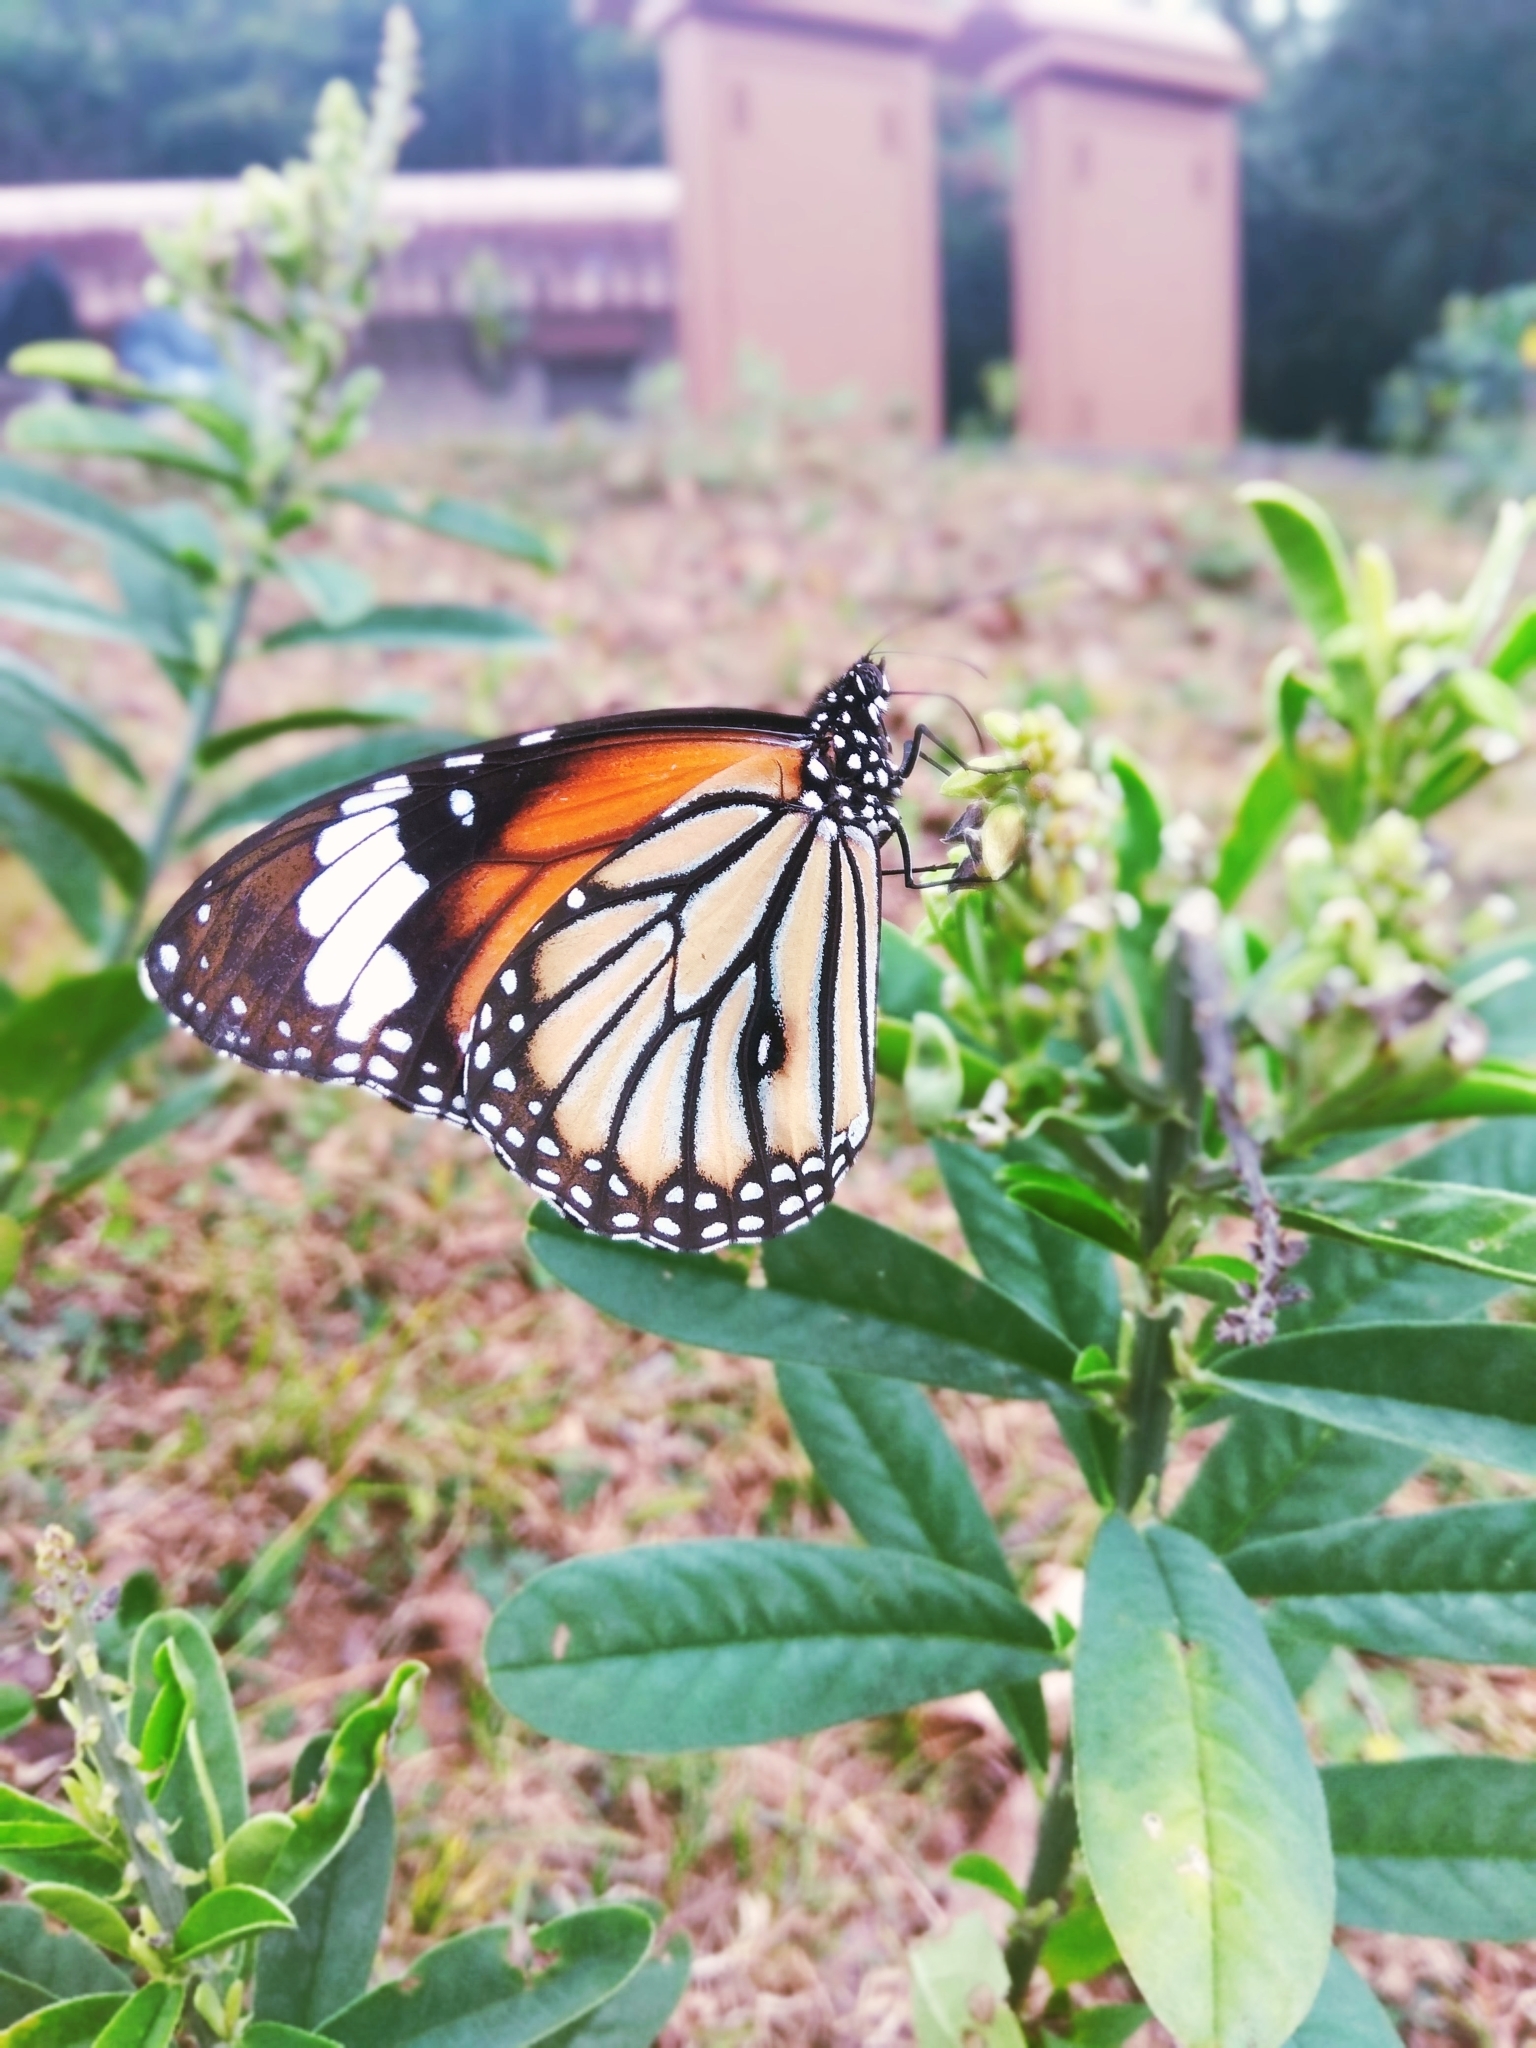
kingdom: Animalia
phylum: Arthropoda
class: Insecta
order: Lepidoptera
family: Nymphalidae
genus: Danaus
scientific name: Danaus genutia
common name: Common tiger butterfly
